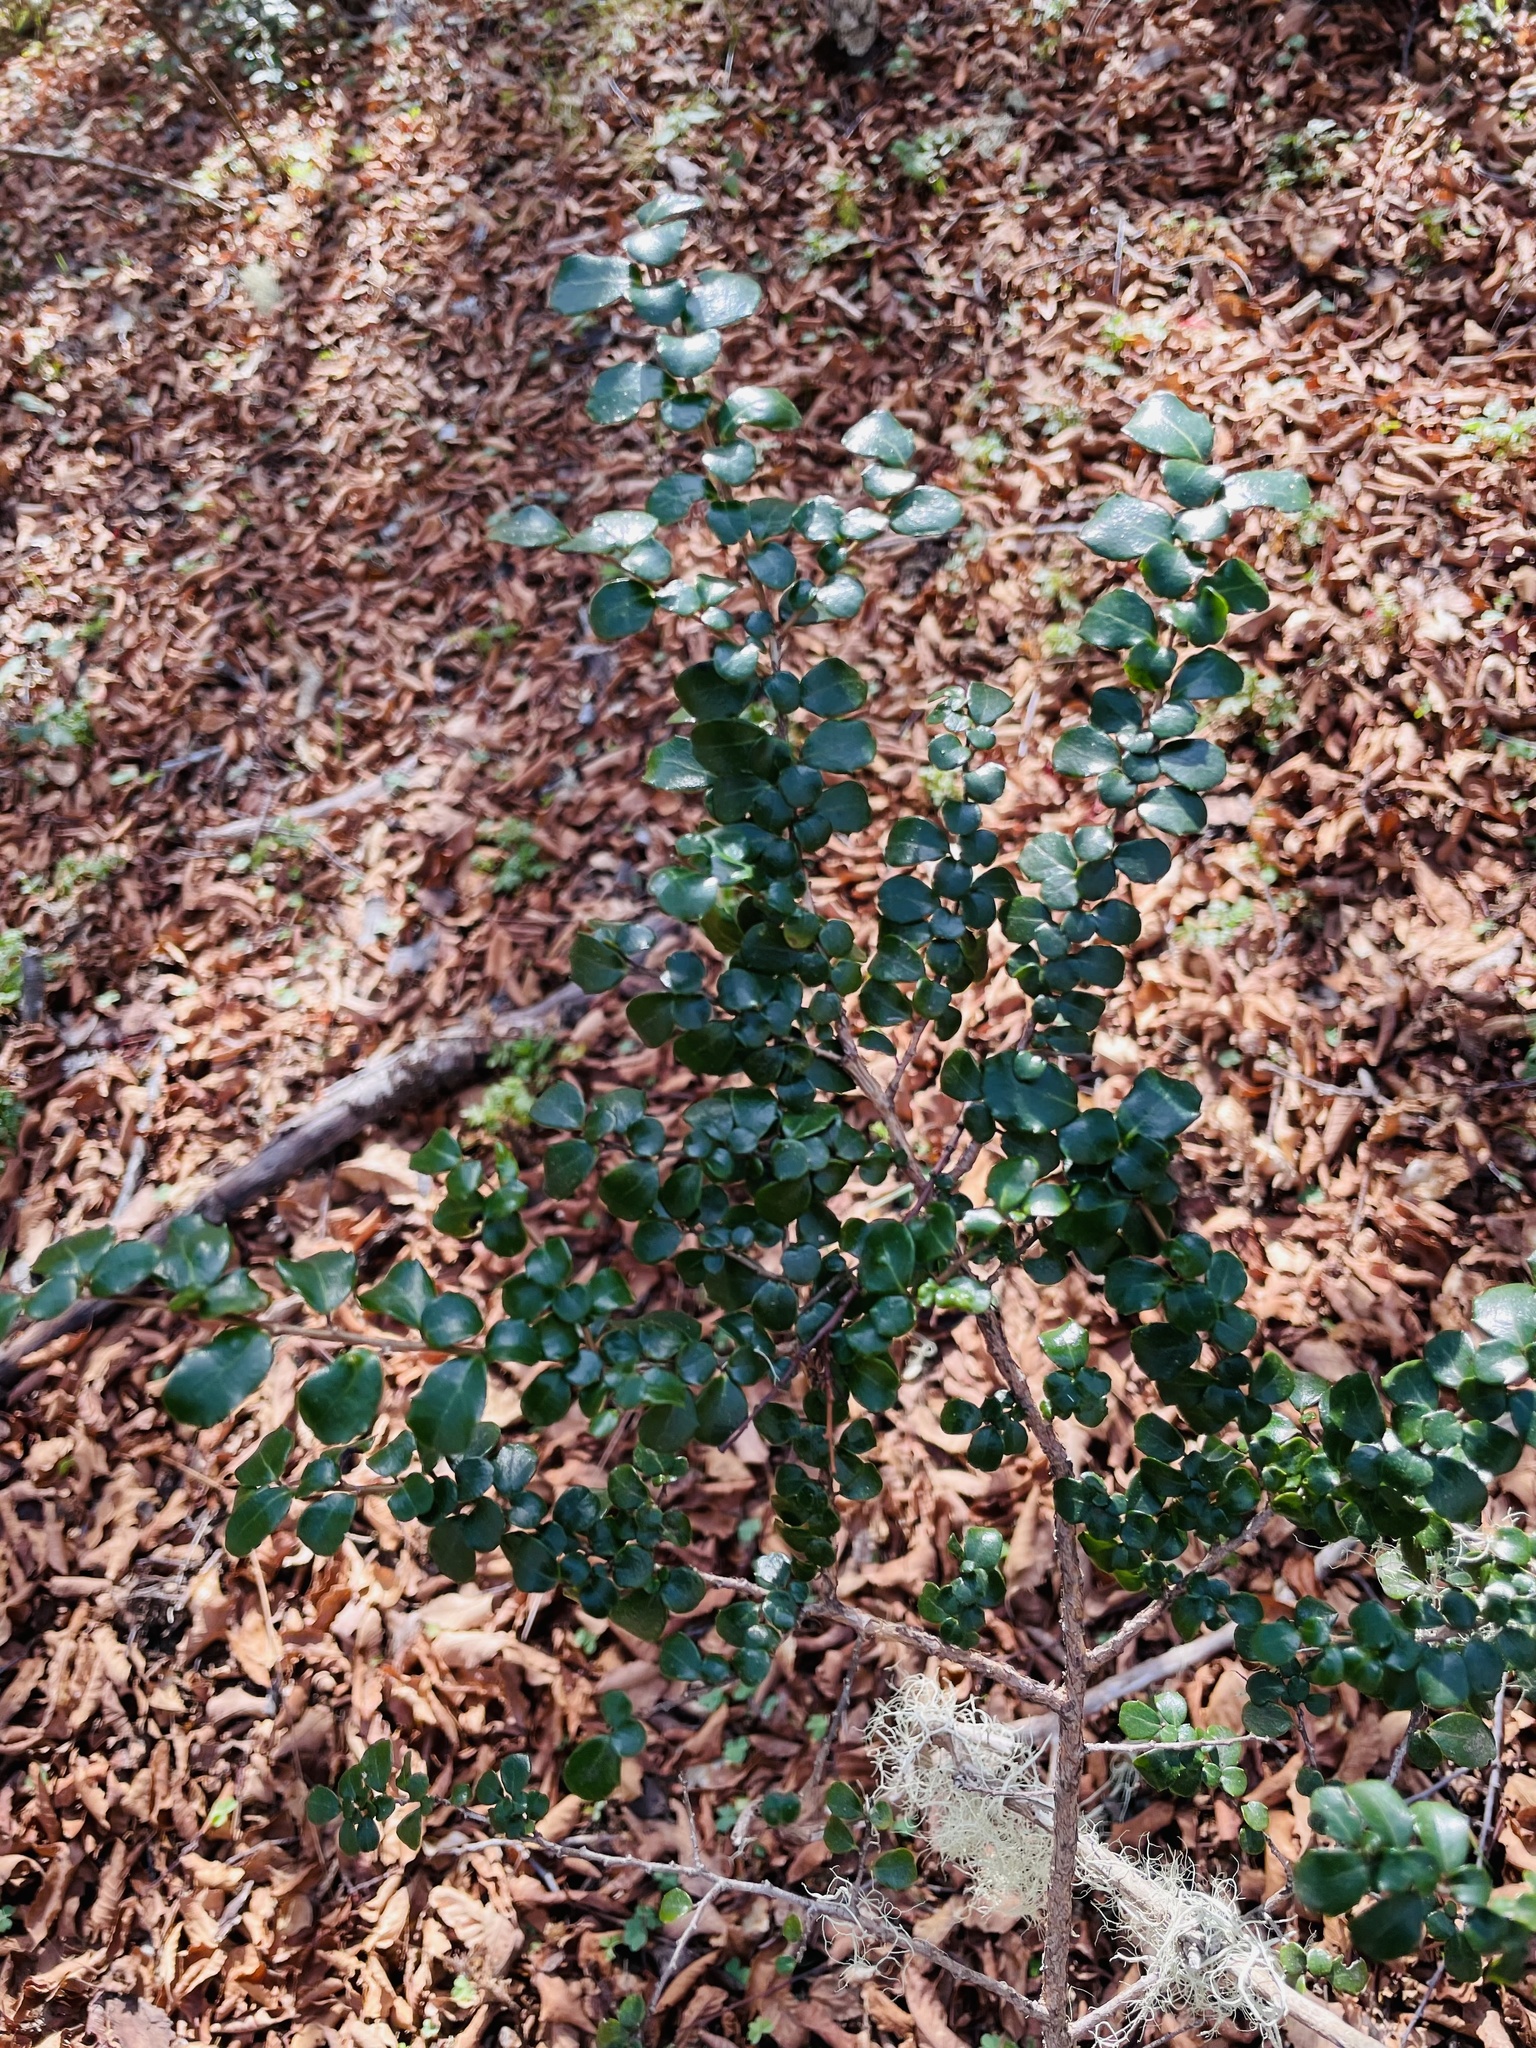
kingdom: Plantae
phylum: Tracheophyta
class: Magnoliopsida
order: Malpighiales
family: Salicaceae
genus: Azara
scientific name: Azara microphylla
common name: Box-leaf azara
